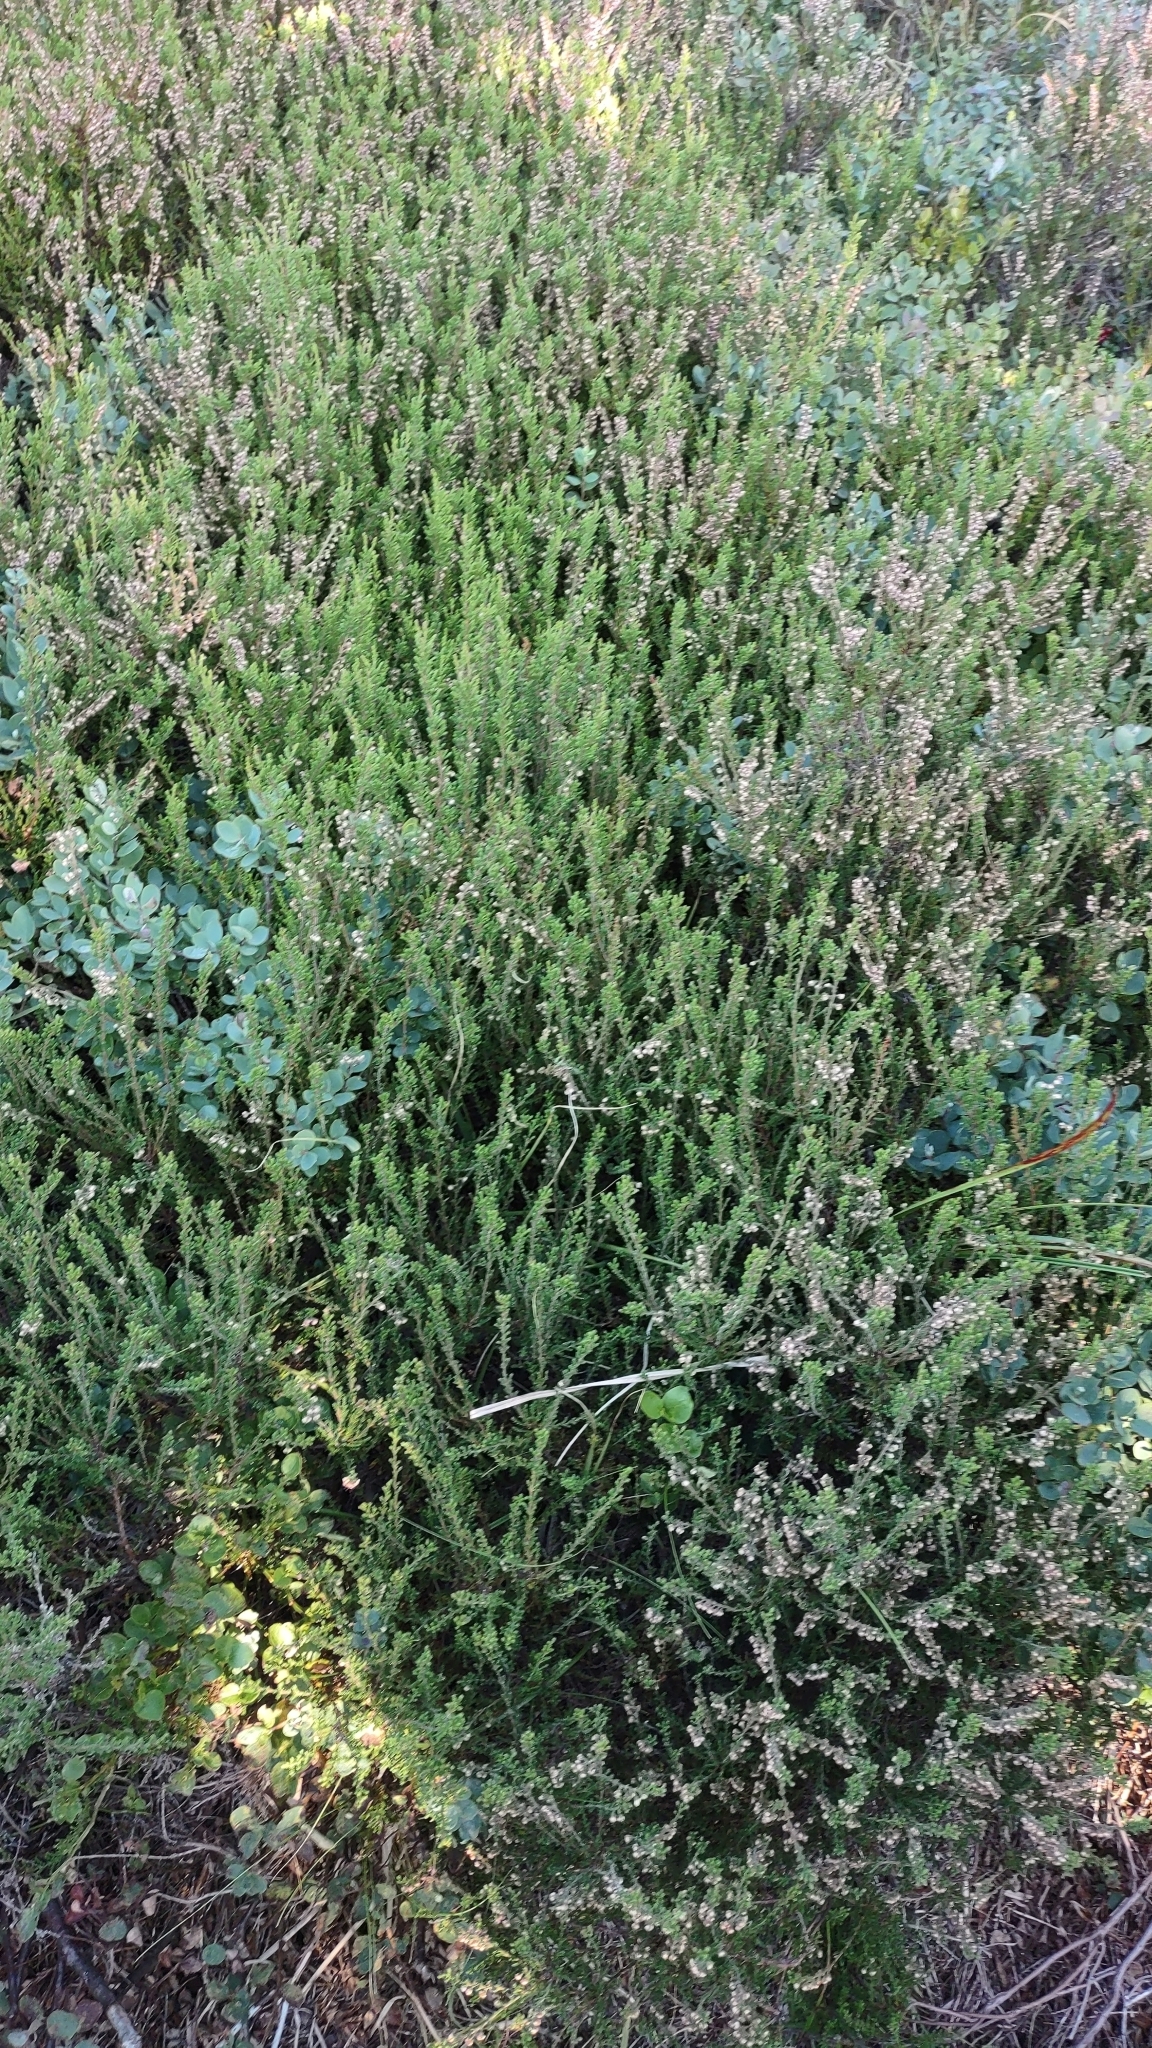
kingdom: Plantae
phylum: Tracheophyta
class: Magnoliopsida
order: Ericales
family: Ericaceae
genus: Calluna
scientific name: Calluna vulgaris
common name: Heather
